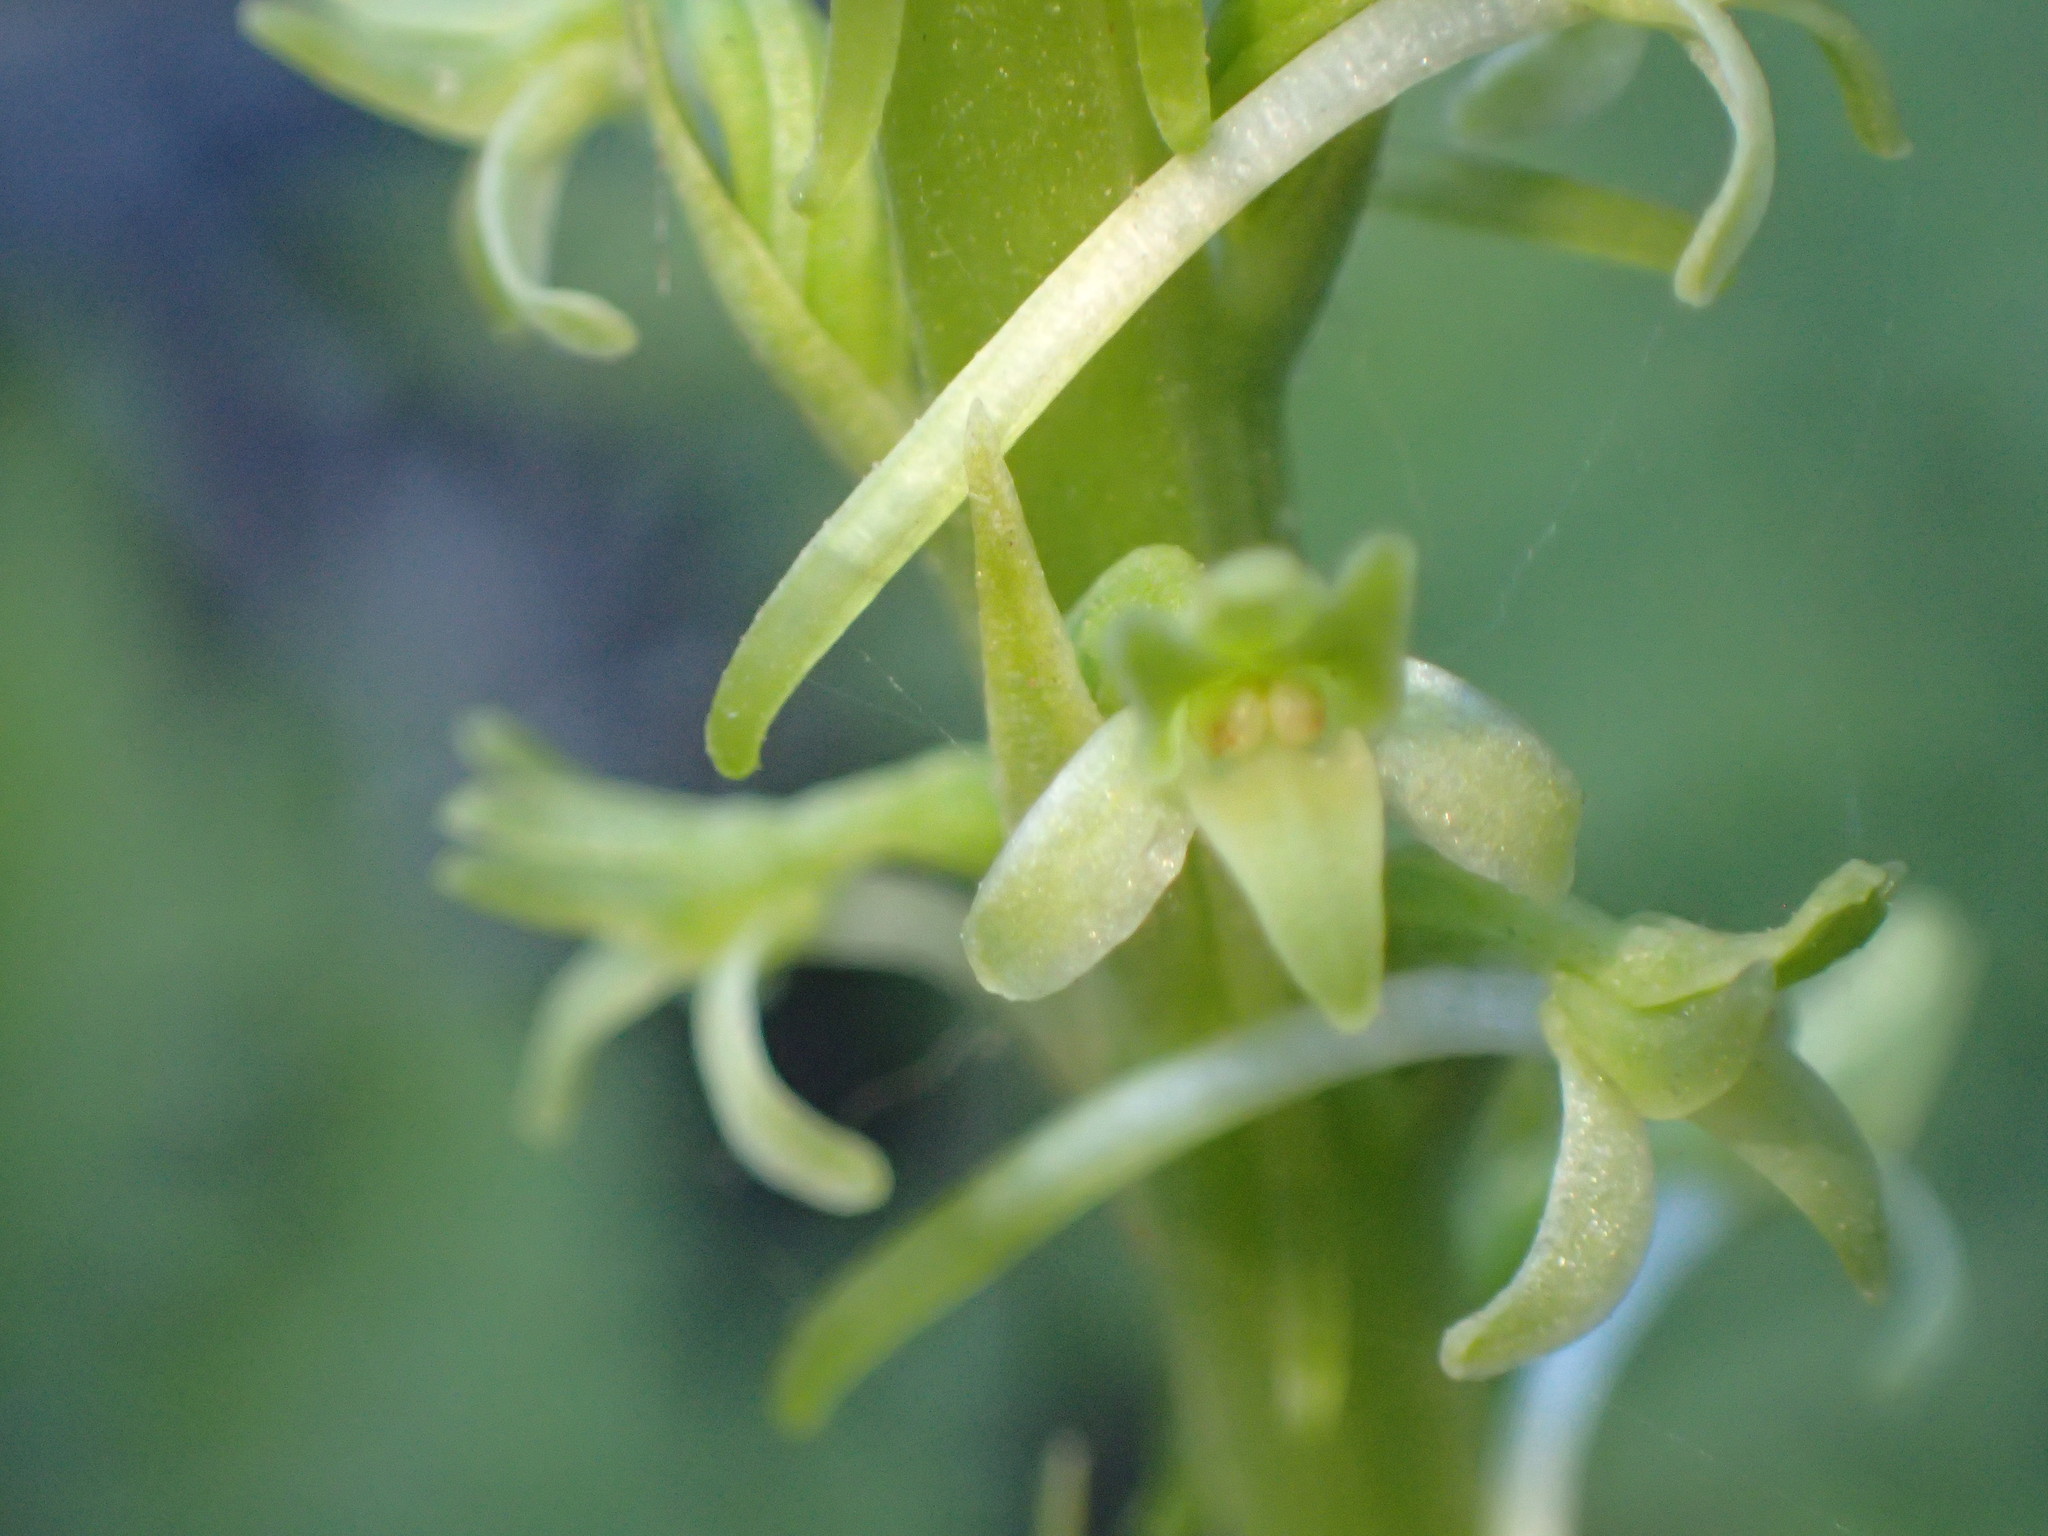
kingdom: Plantae
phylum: Tracheophyta
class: Liliopsida
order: Asparagales
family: Orchidaceae
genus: Platanthera
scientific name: Platanthera elongata
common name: Dense-flowered rein orchid
